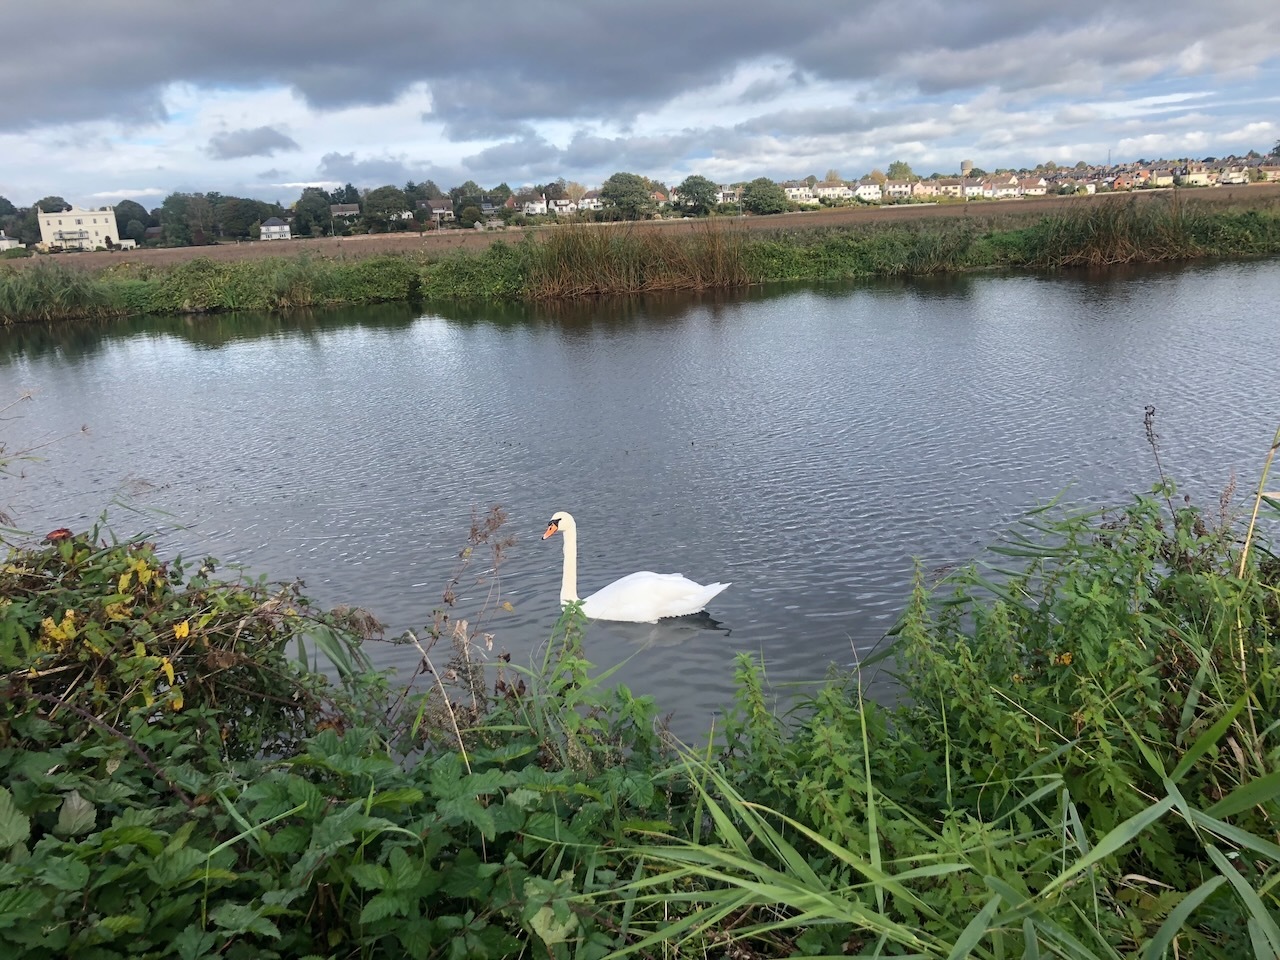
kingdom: Animalia
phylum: Chordata
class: Aves
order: Anseriformes
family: Anatidae
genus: Cygnus
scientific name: Cygnus olor
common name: Mute swan
